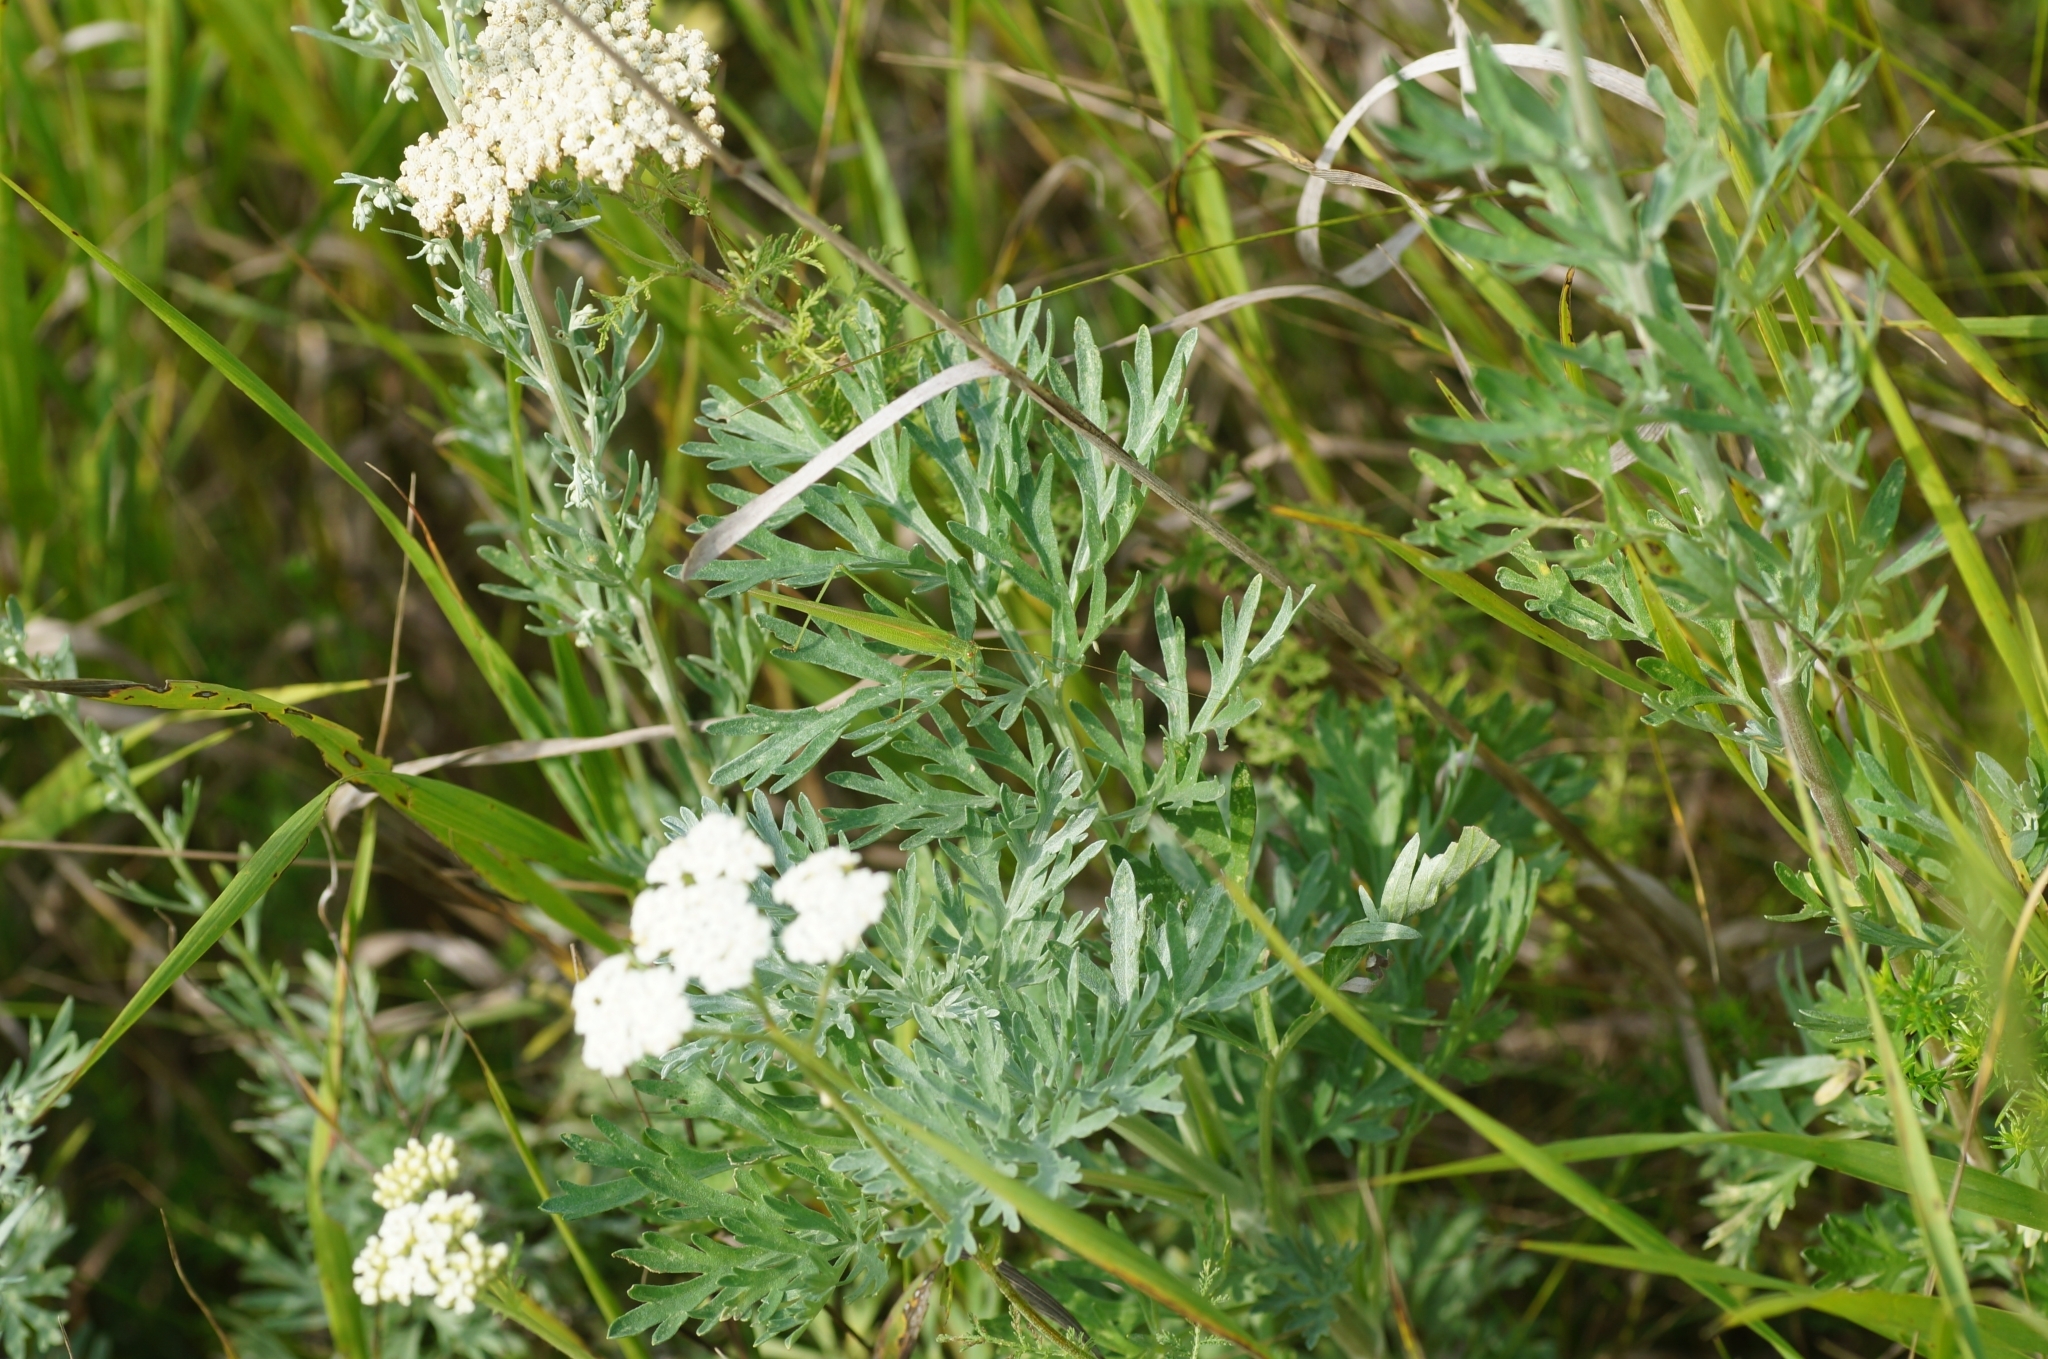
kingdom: Plantae
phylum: Tracheophyta
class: Magnoliopsida
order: Asterales
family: Asteraceae
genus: Artemisia
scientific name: Artemisia absinthium
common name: Wormwood
